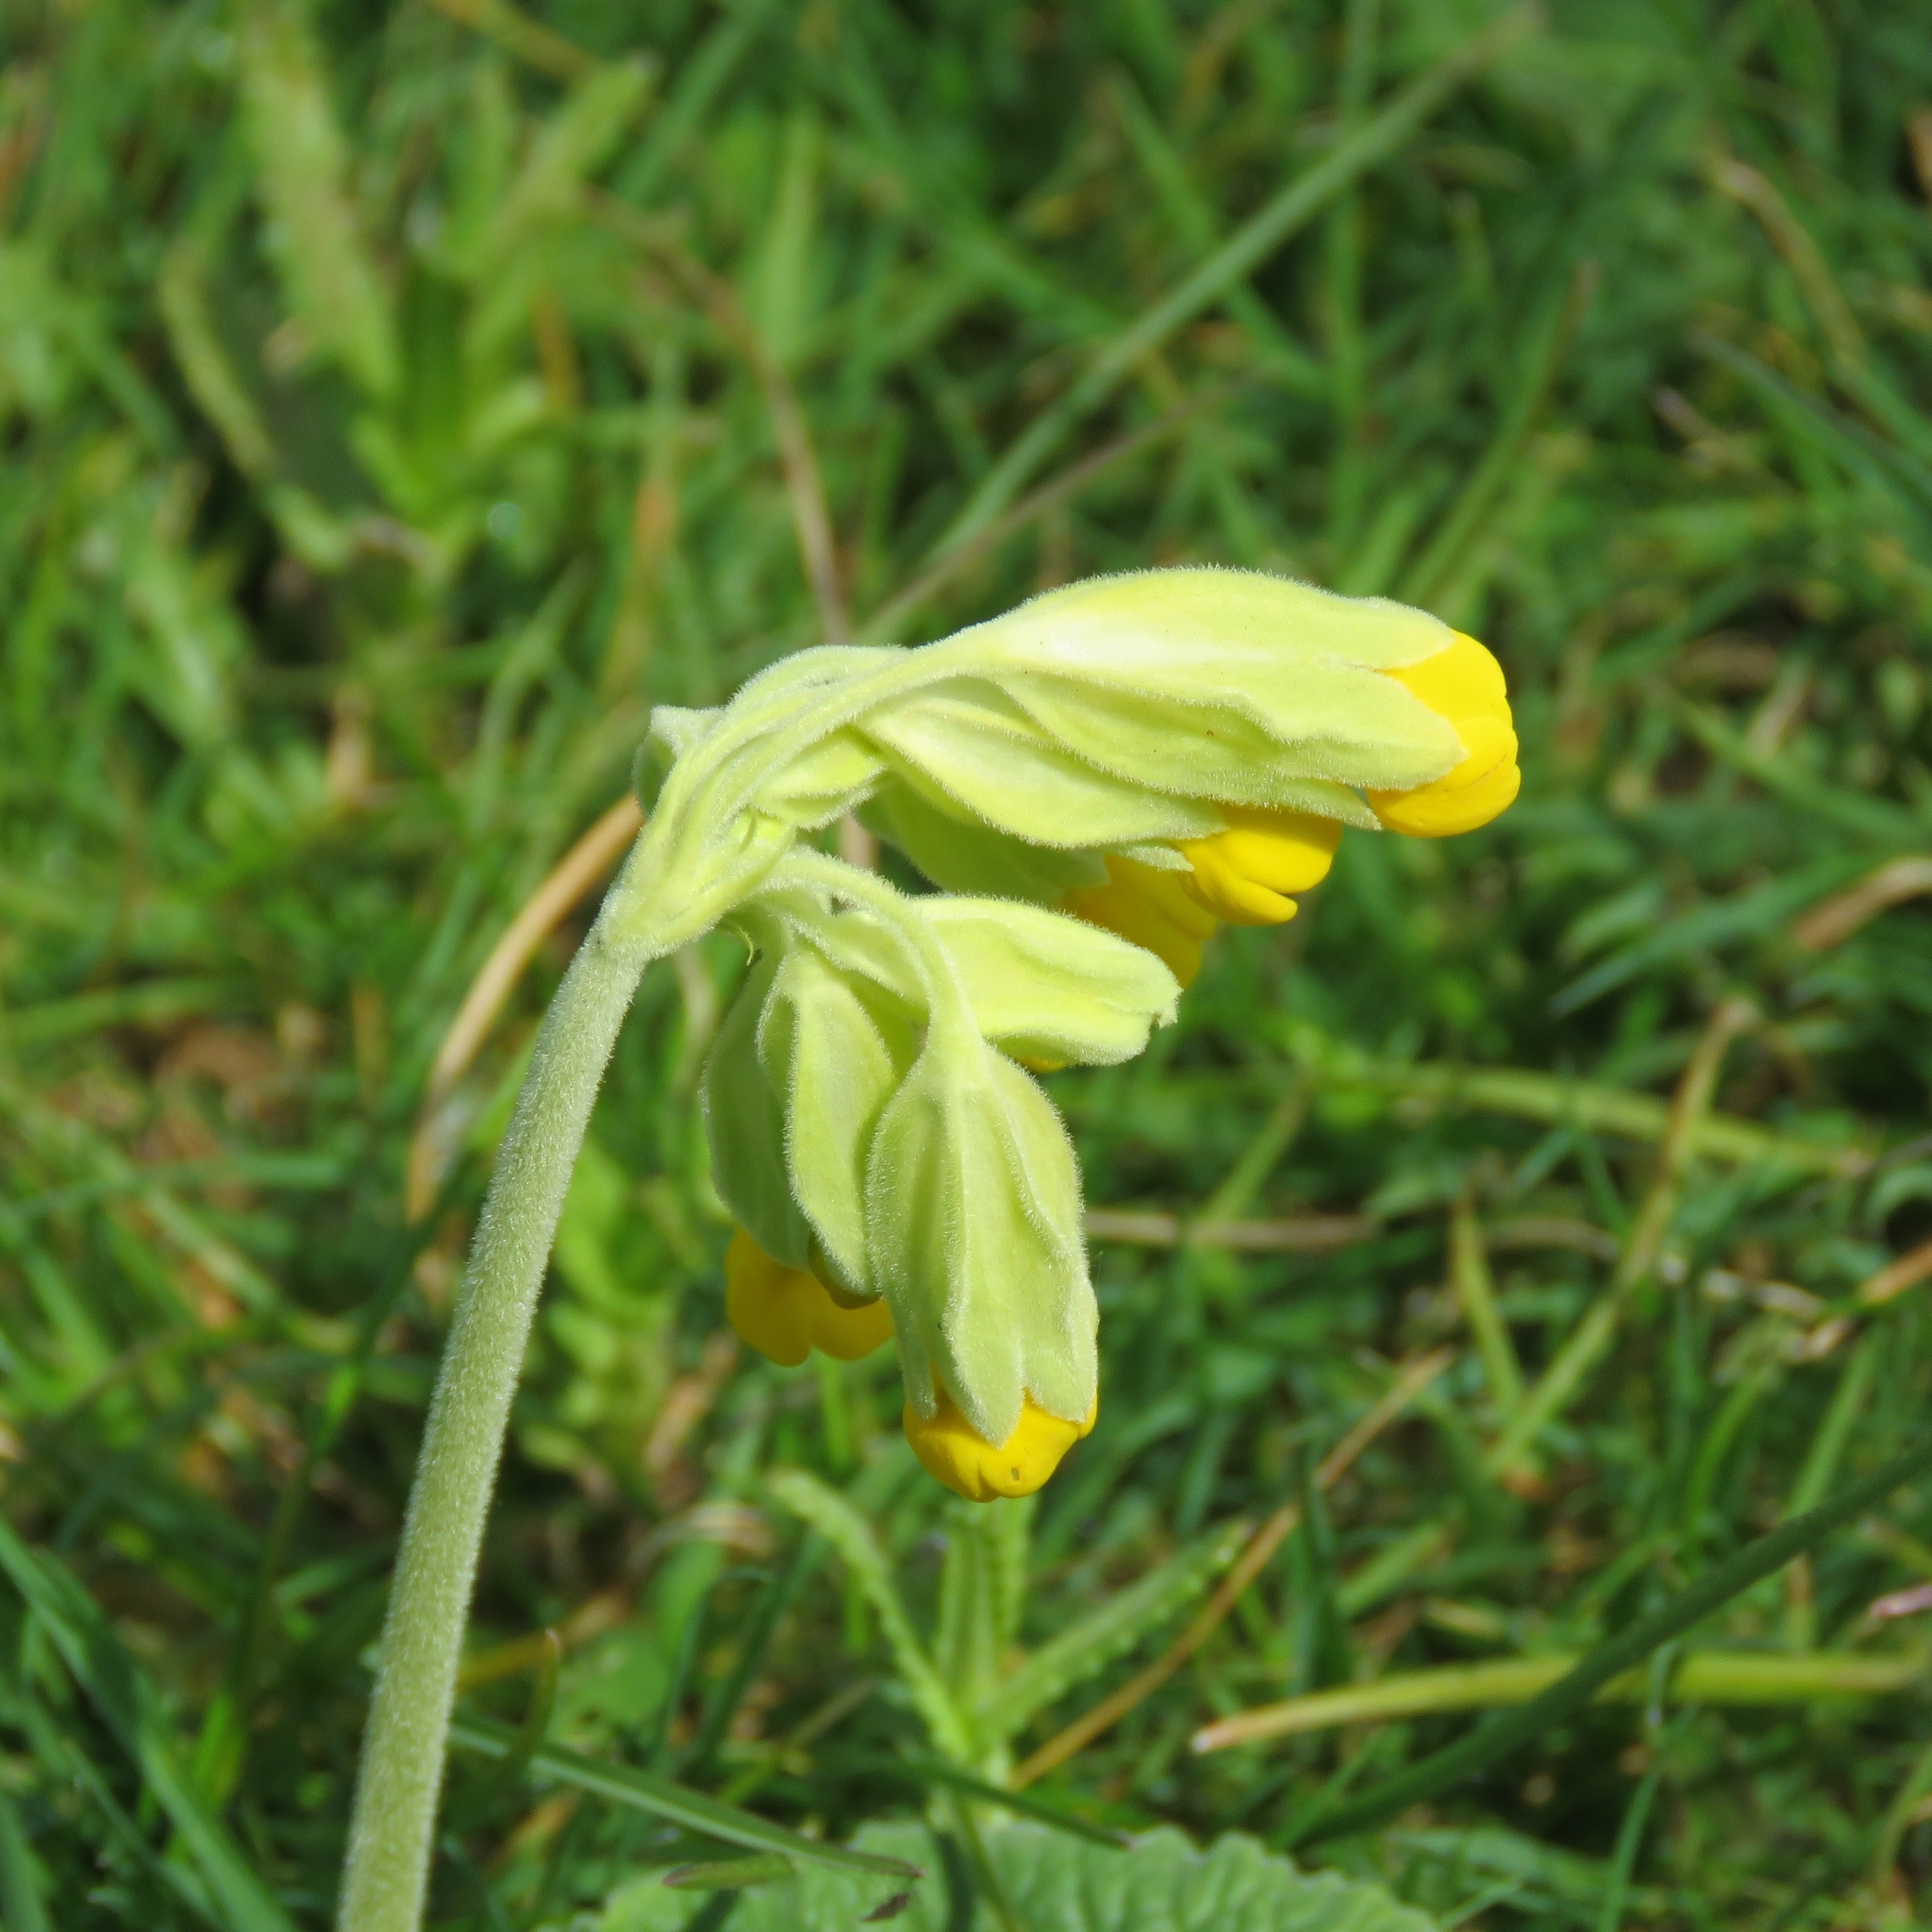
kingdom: Plantae
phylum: Tracheophyta
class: Magnoliopsida
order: Ericales
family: Primulaceae
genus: Primula
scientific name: Primula veris
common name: Cowslip
